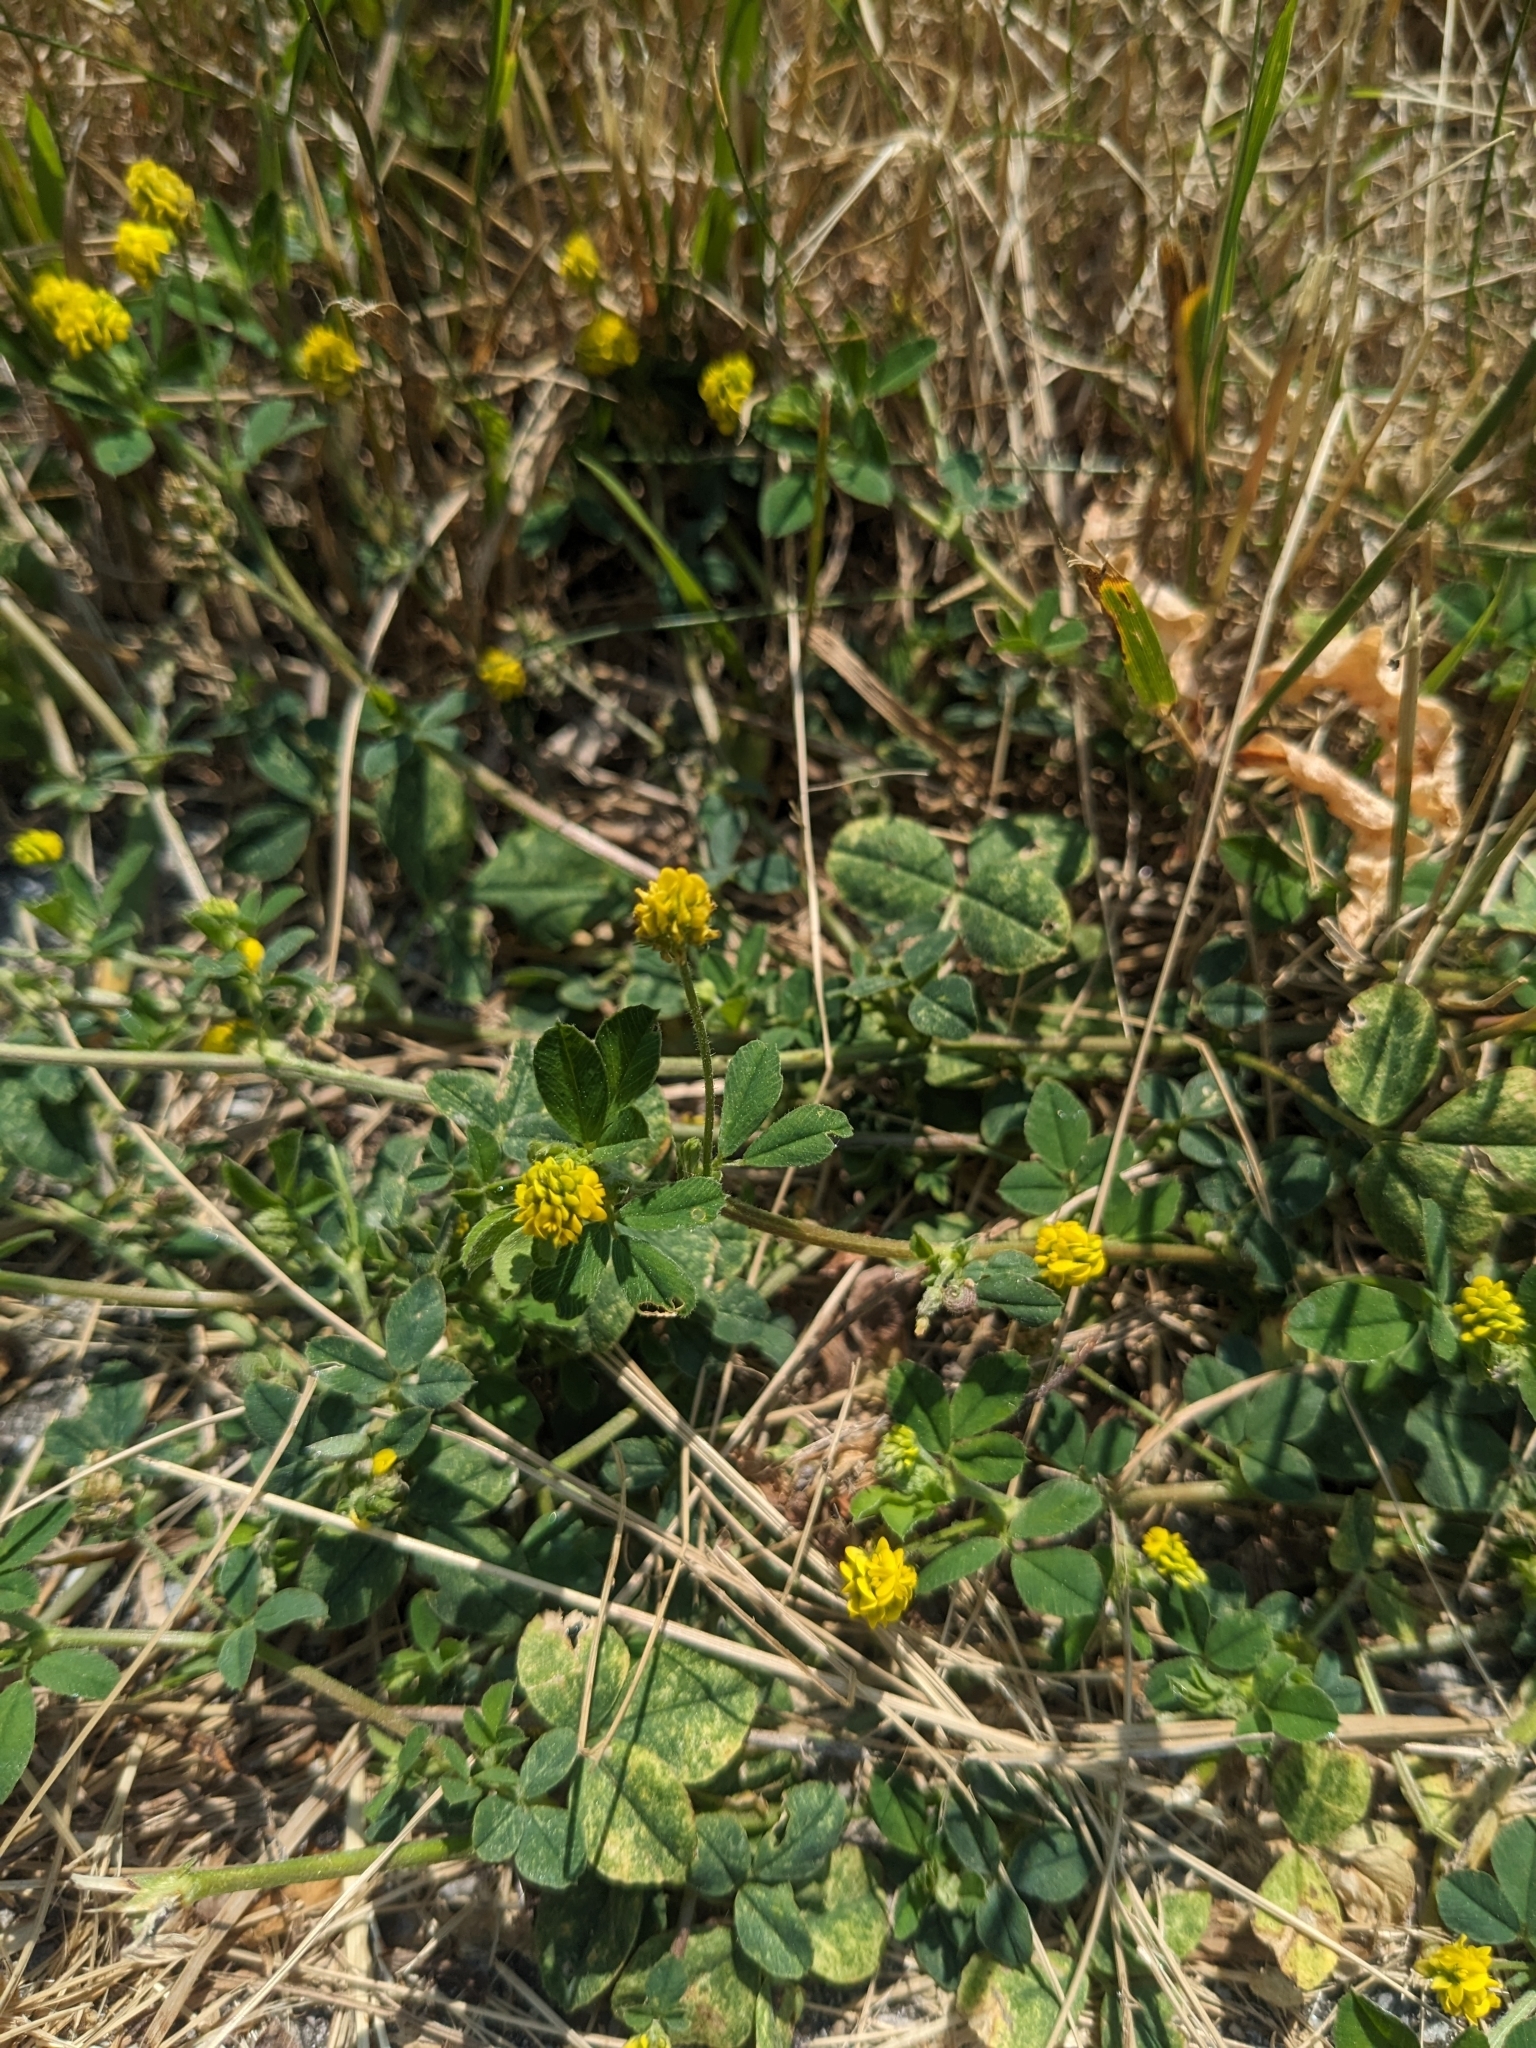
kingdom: Plantae
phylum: Tracheophyta
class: Magnoliopsida
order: Fabales
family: Fabaceae
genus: Medicago
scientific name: Medicago lupulina
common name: Black medick
